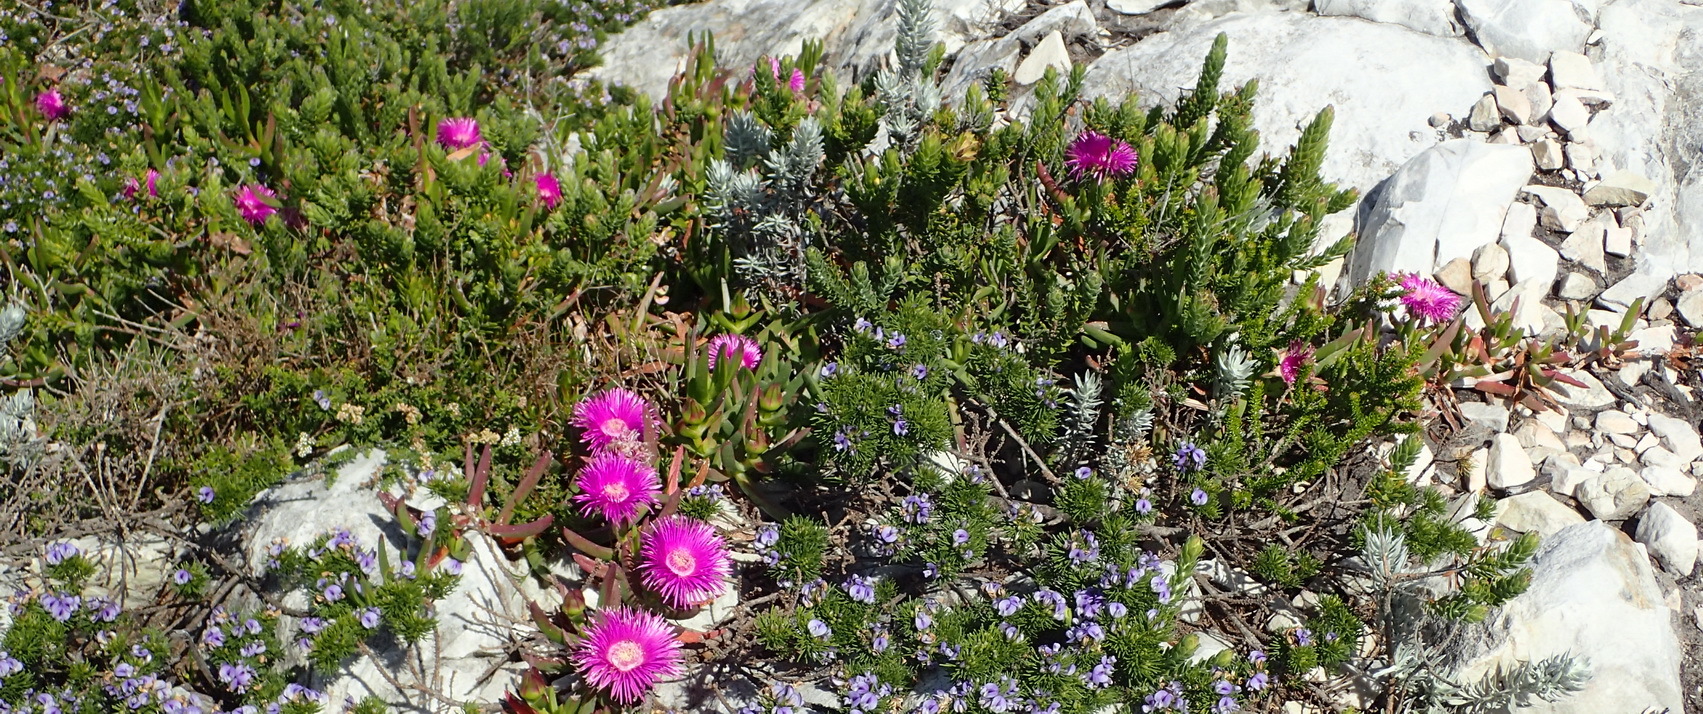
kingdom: Plantae
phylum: Tracheophyta
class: Magnoliopsida
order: Caryophyllales
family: Aizoaceae
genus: Carpobrotus
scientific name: Carpobrotus deliciosus
